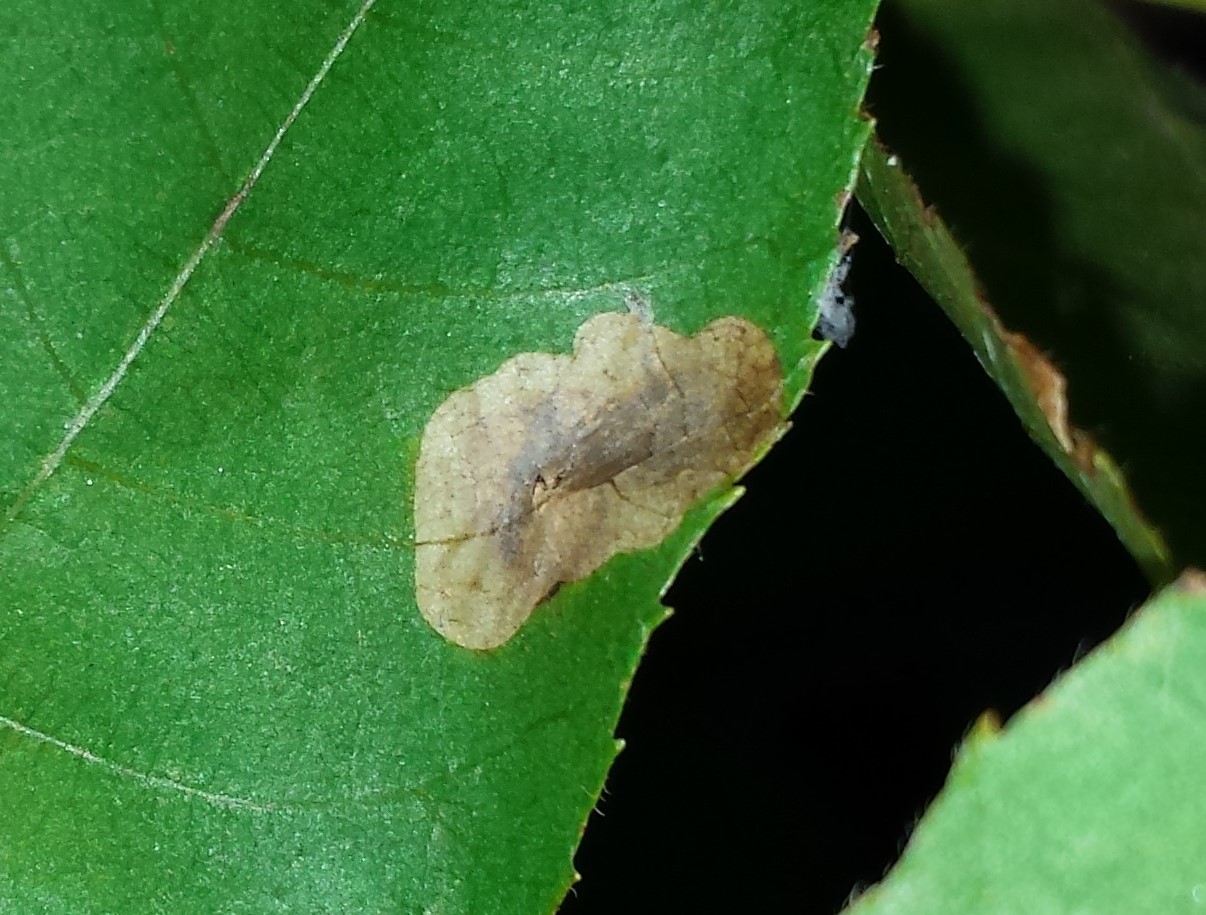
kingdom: Animalia
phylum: Arthropoda
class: Insecta
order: Lepidoptera
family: Gracillariidae
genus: Cameraria
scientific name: Cameraria caryaefoliella
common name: Pecan leafminer moth
